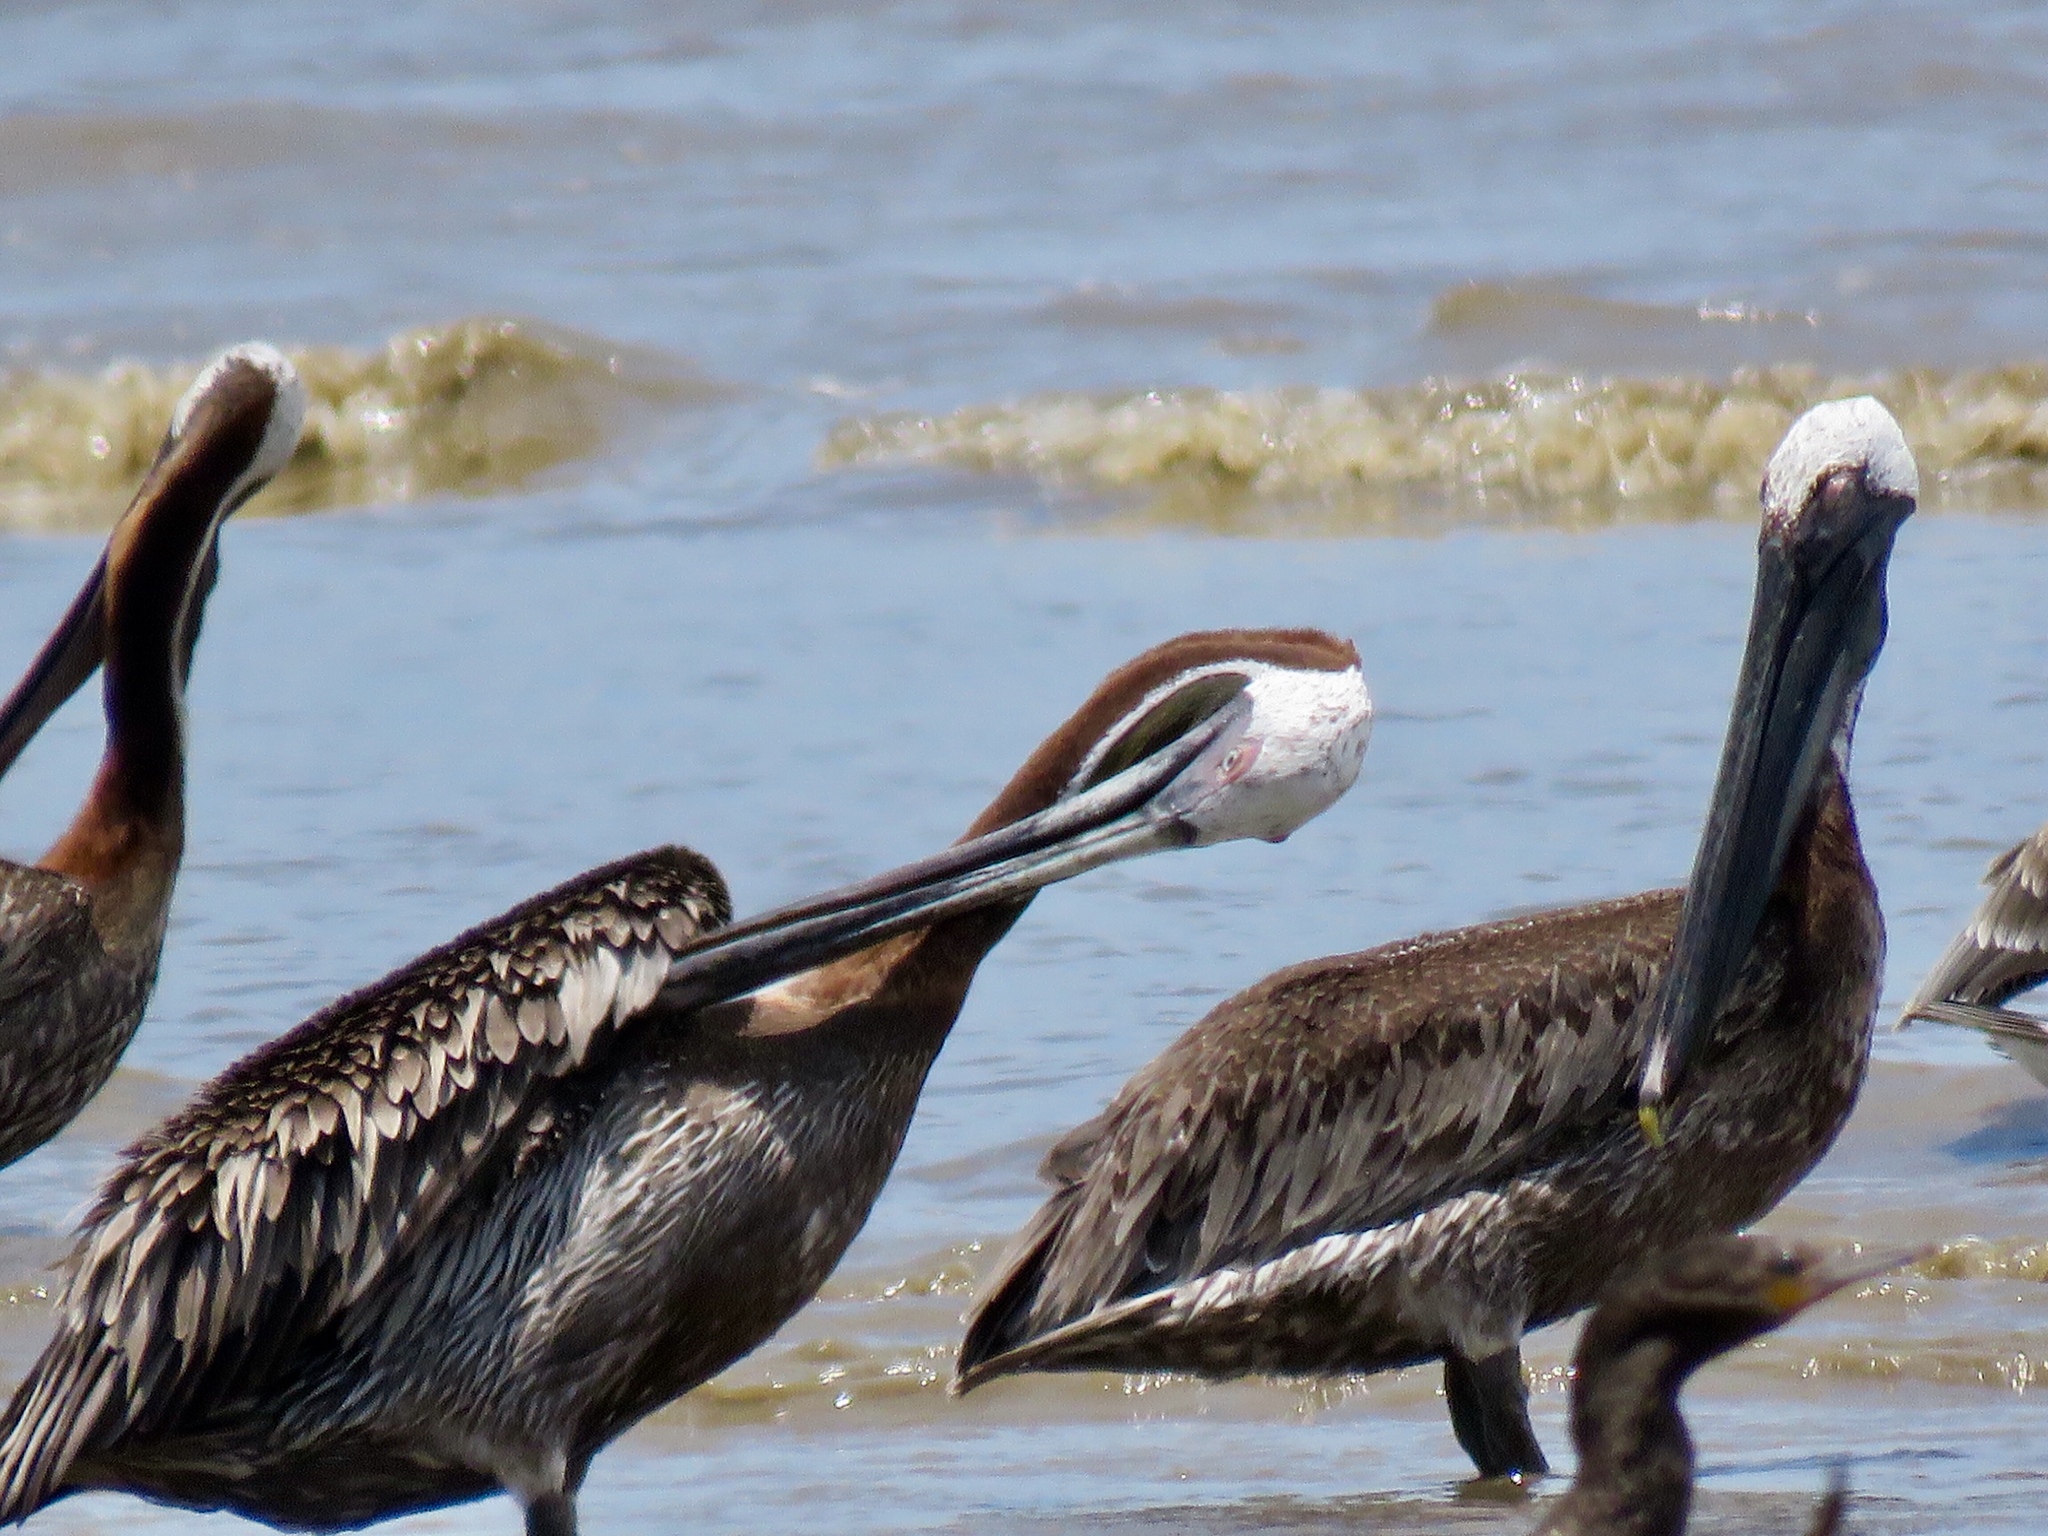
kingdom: Animalia
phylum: Chordata
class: Aves
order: Pelecaniformes
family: Pelecanidae
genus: Pelecanus
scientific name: Pelecanus occidentalis
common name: Brown pelican
